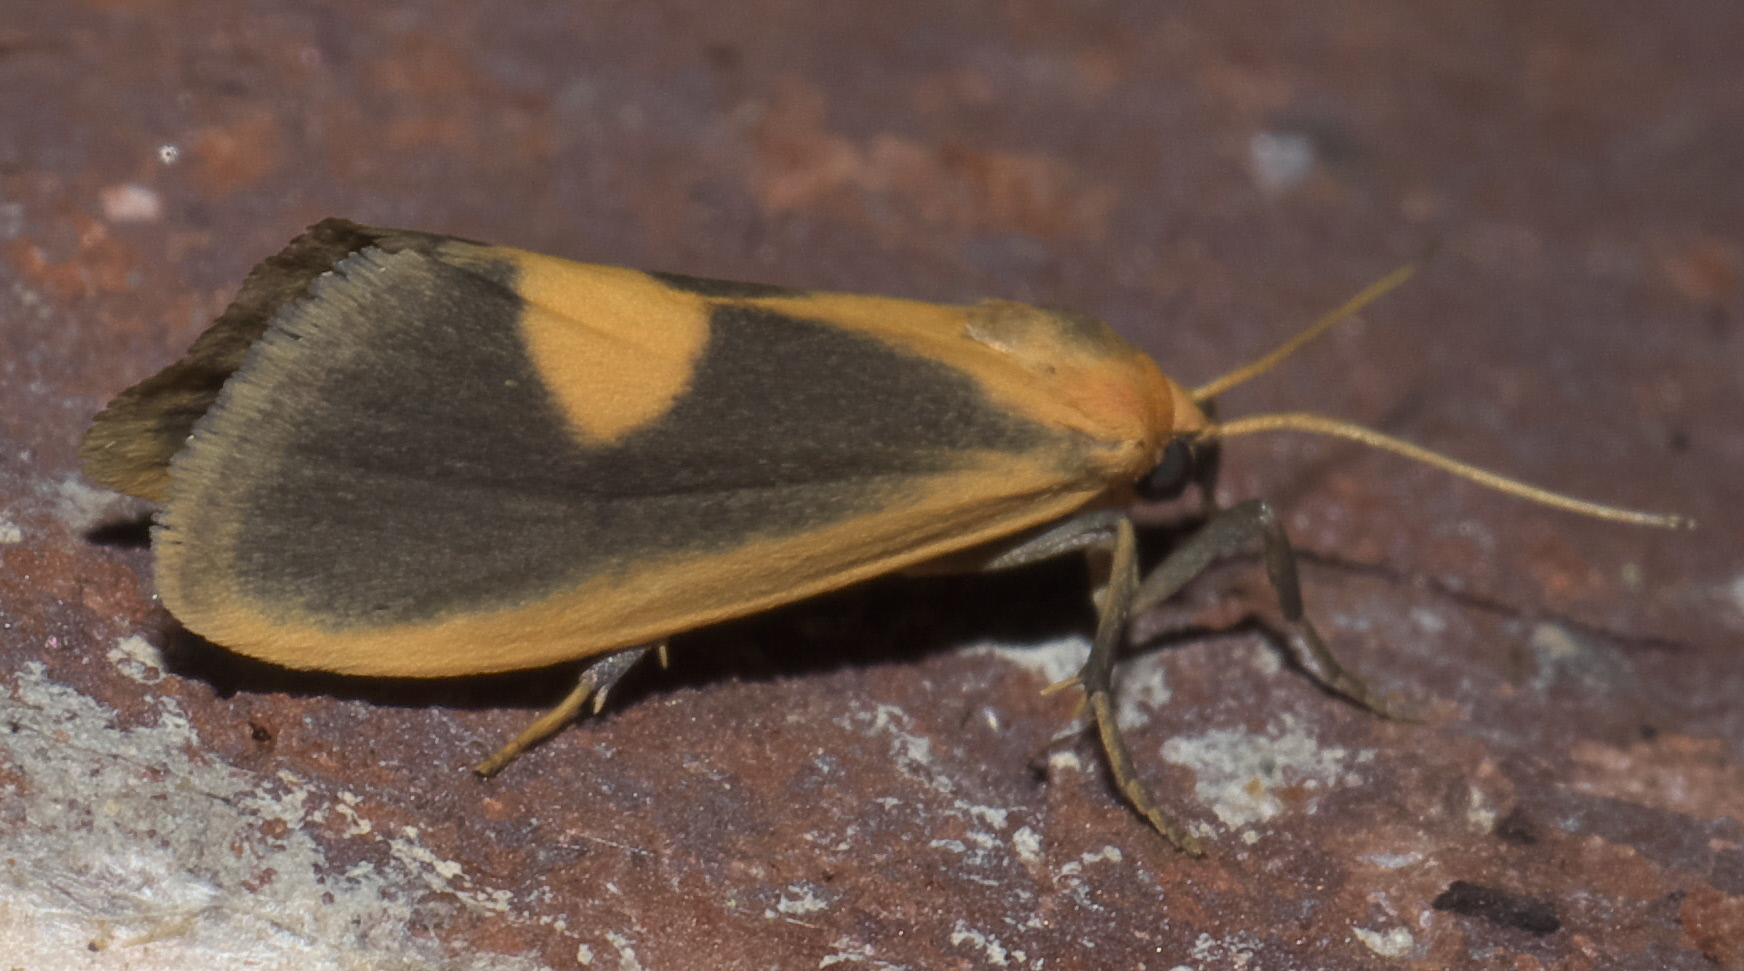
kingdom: Animalia
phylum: Arthropoda
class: Insecta
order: Lepidoptera
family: Erebidae
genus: Cisthene
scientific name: Cisthene plumbea
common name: Lead colored lichen moth
